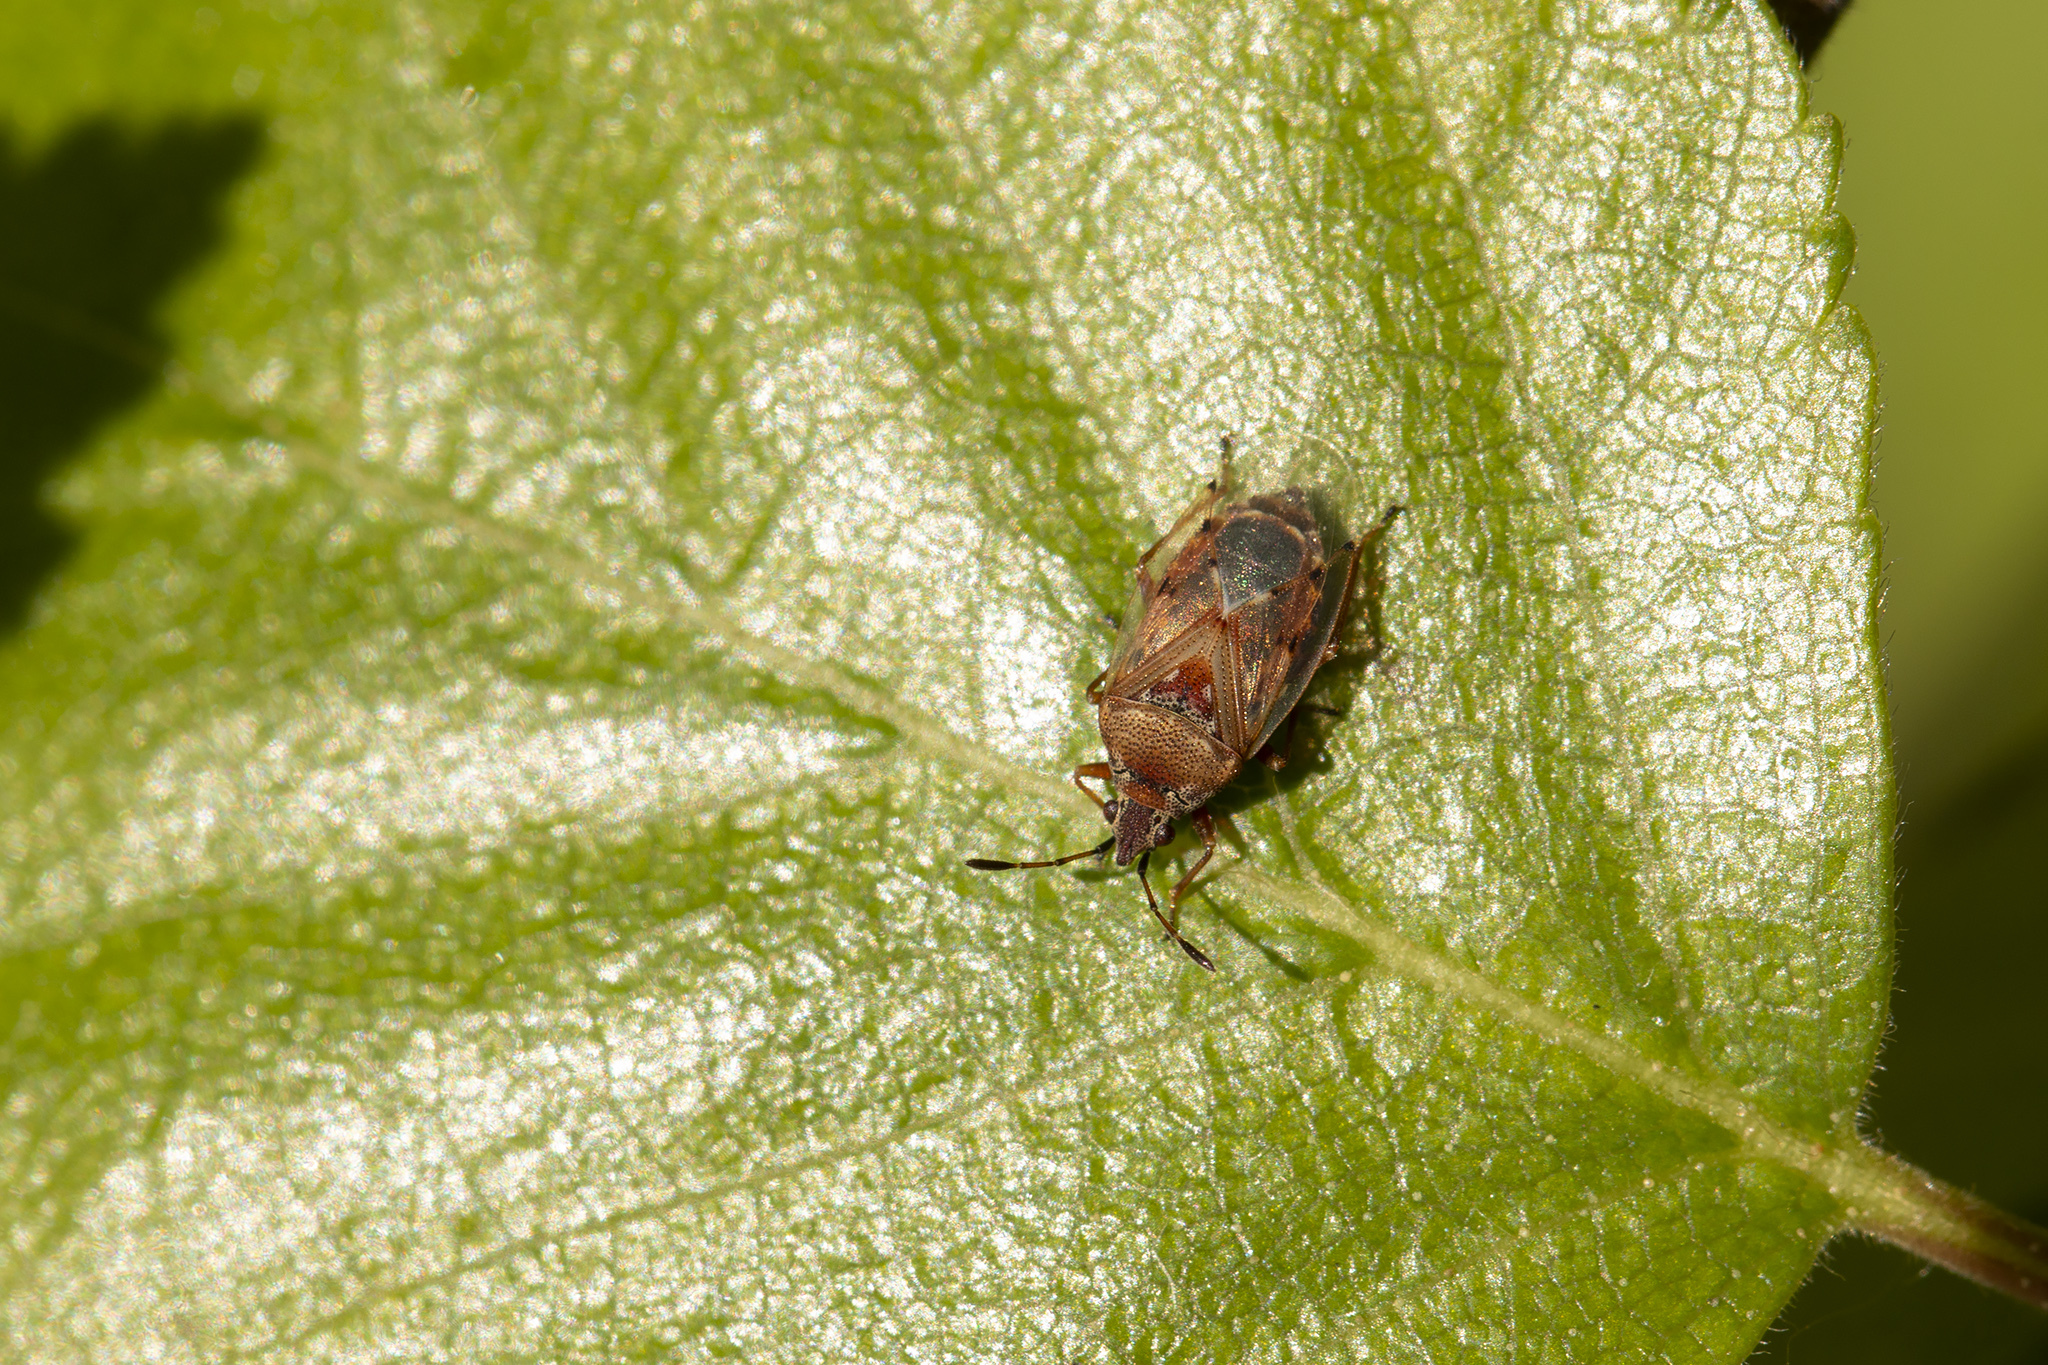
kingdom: Animalia
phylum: Arthropoda
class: Insecta
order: Hemiptera
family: Lygaeidae
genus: Kleidocerys
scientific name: Kleidocerys resedae
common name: Birch catkin bug
